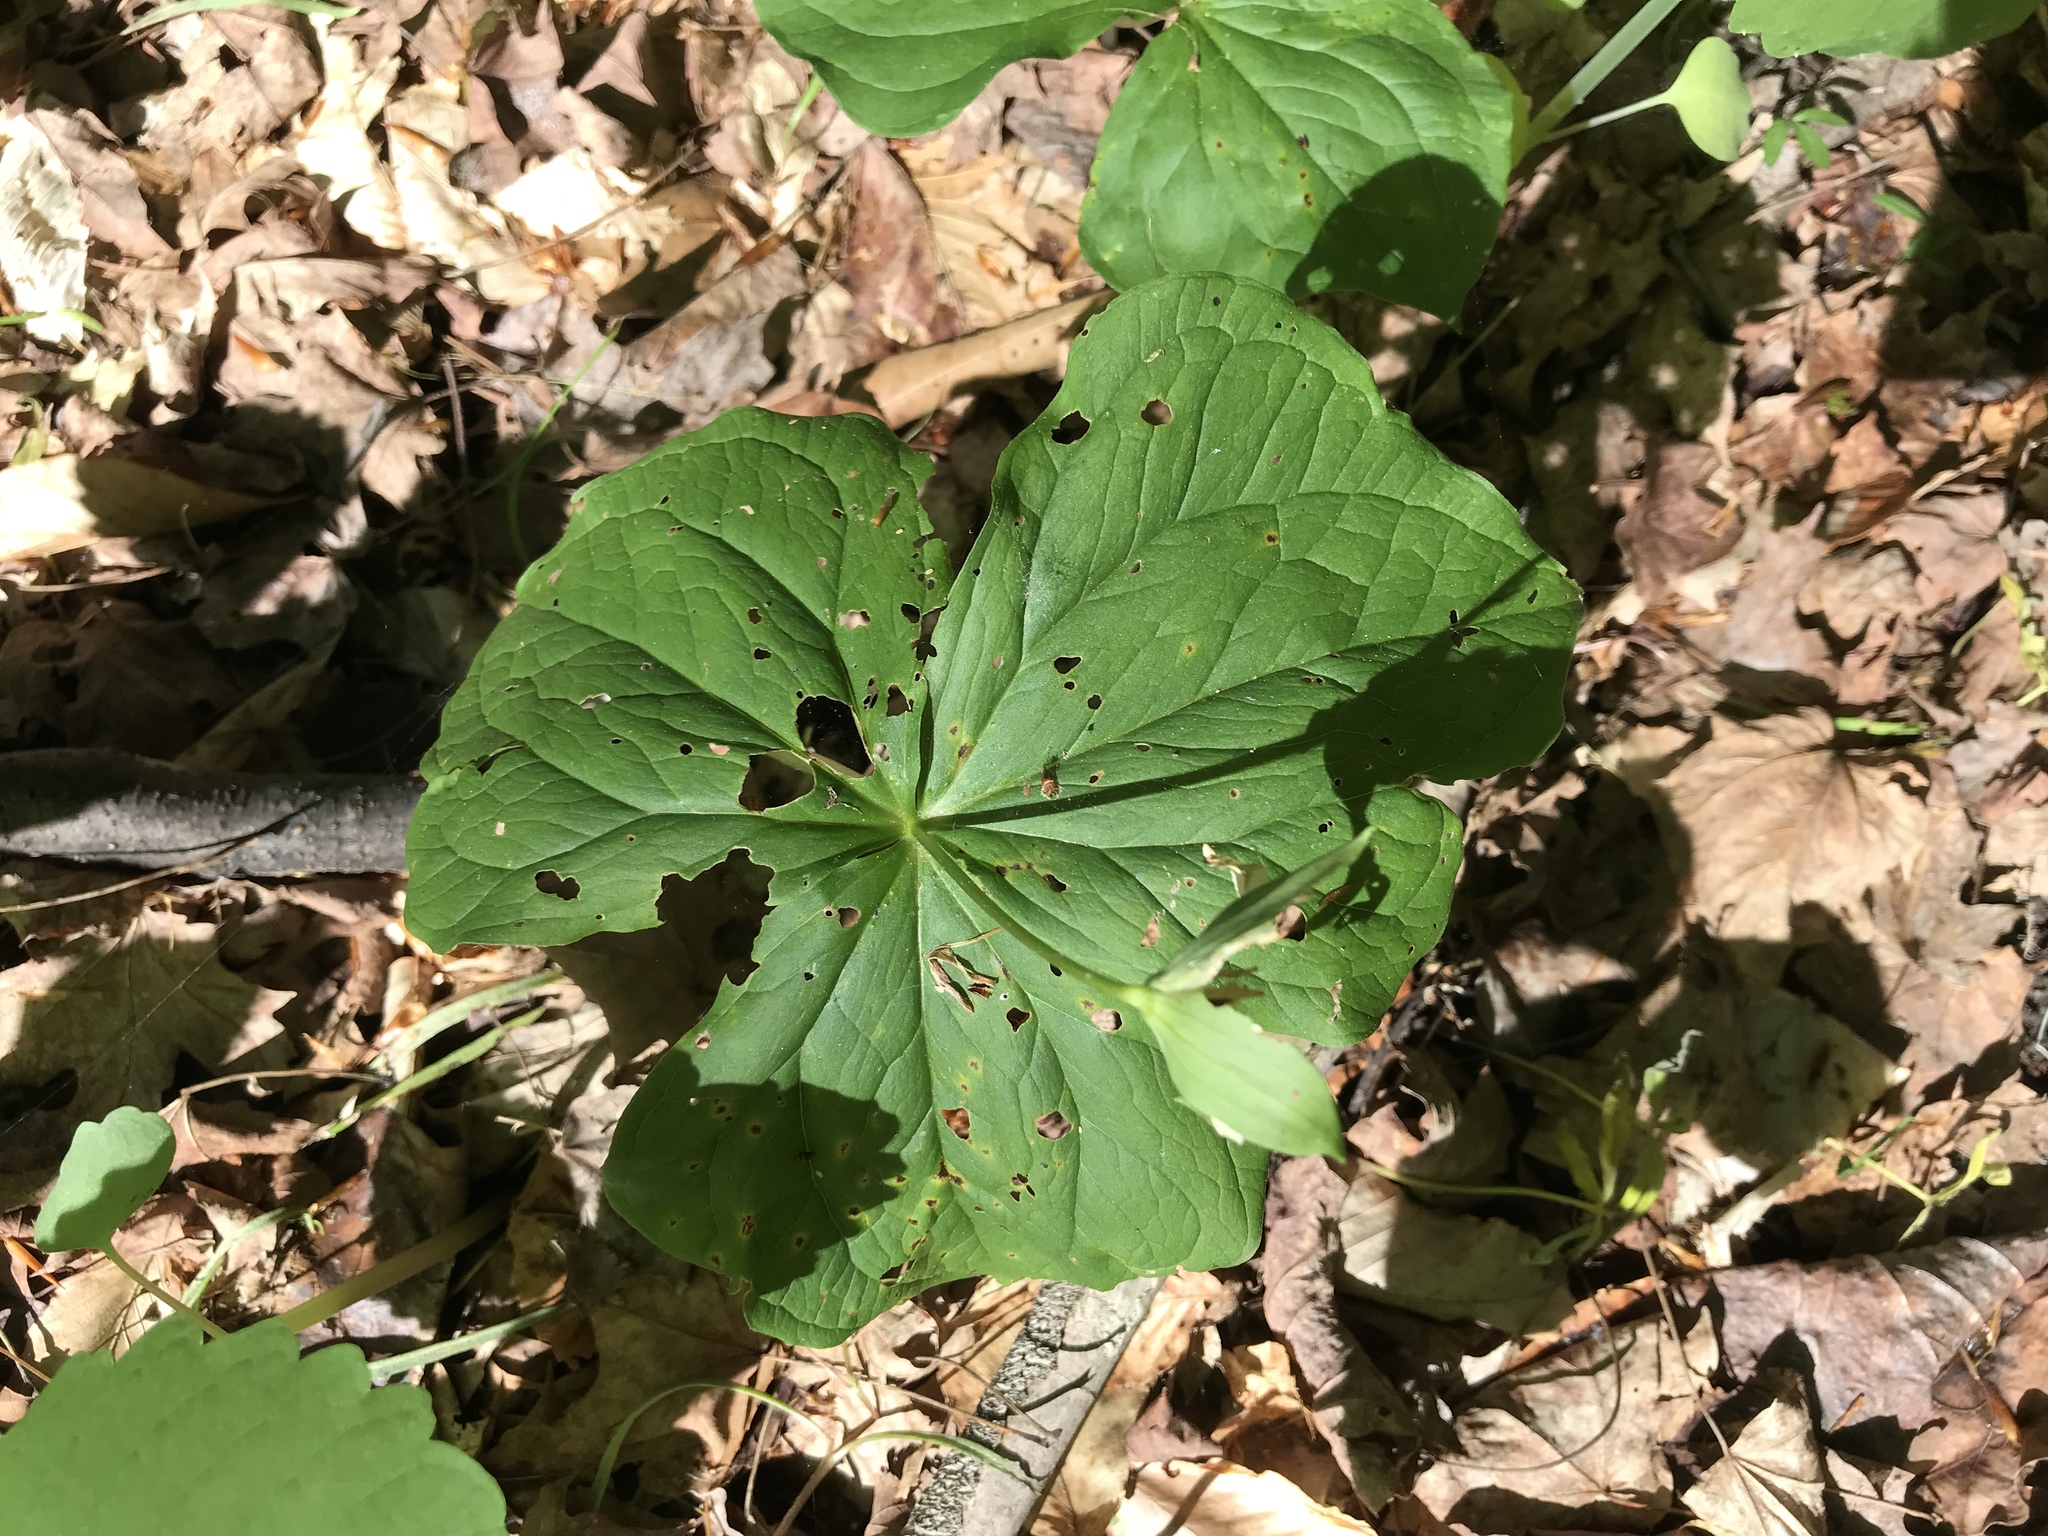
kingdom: Plantae
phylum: Tracheophyta
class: Liliopsida
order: Liliales
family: Melanthiaceae
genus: Trillium
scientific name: Trillium erectum
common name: Purple trillium
